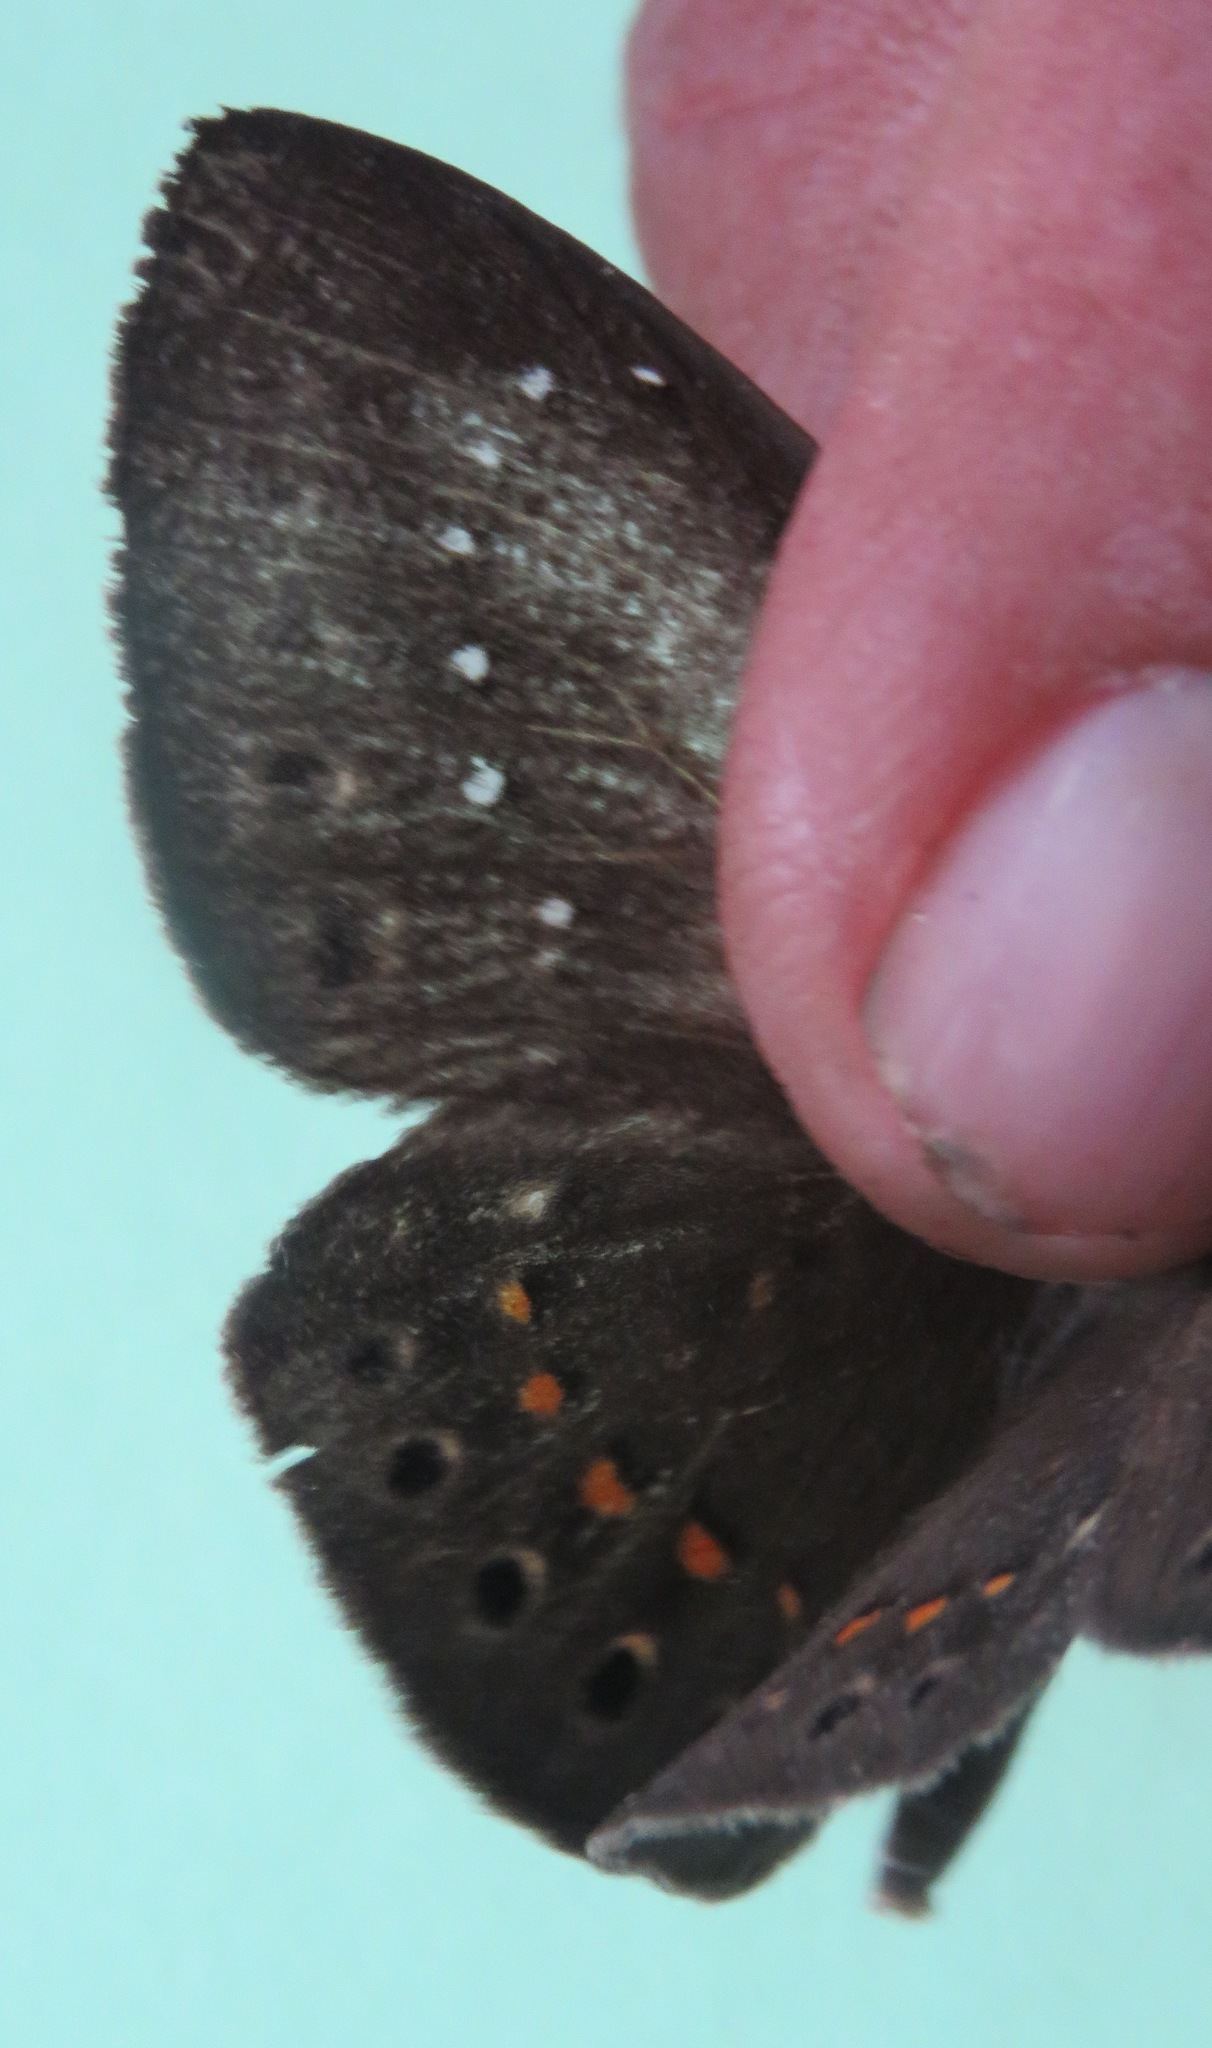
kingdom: Animalia
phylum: Cnidaria
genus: Eurybia
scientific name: Eurybia elvina
